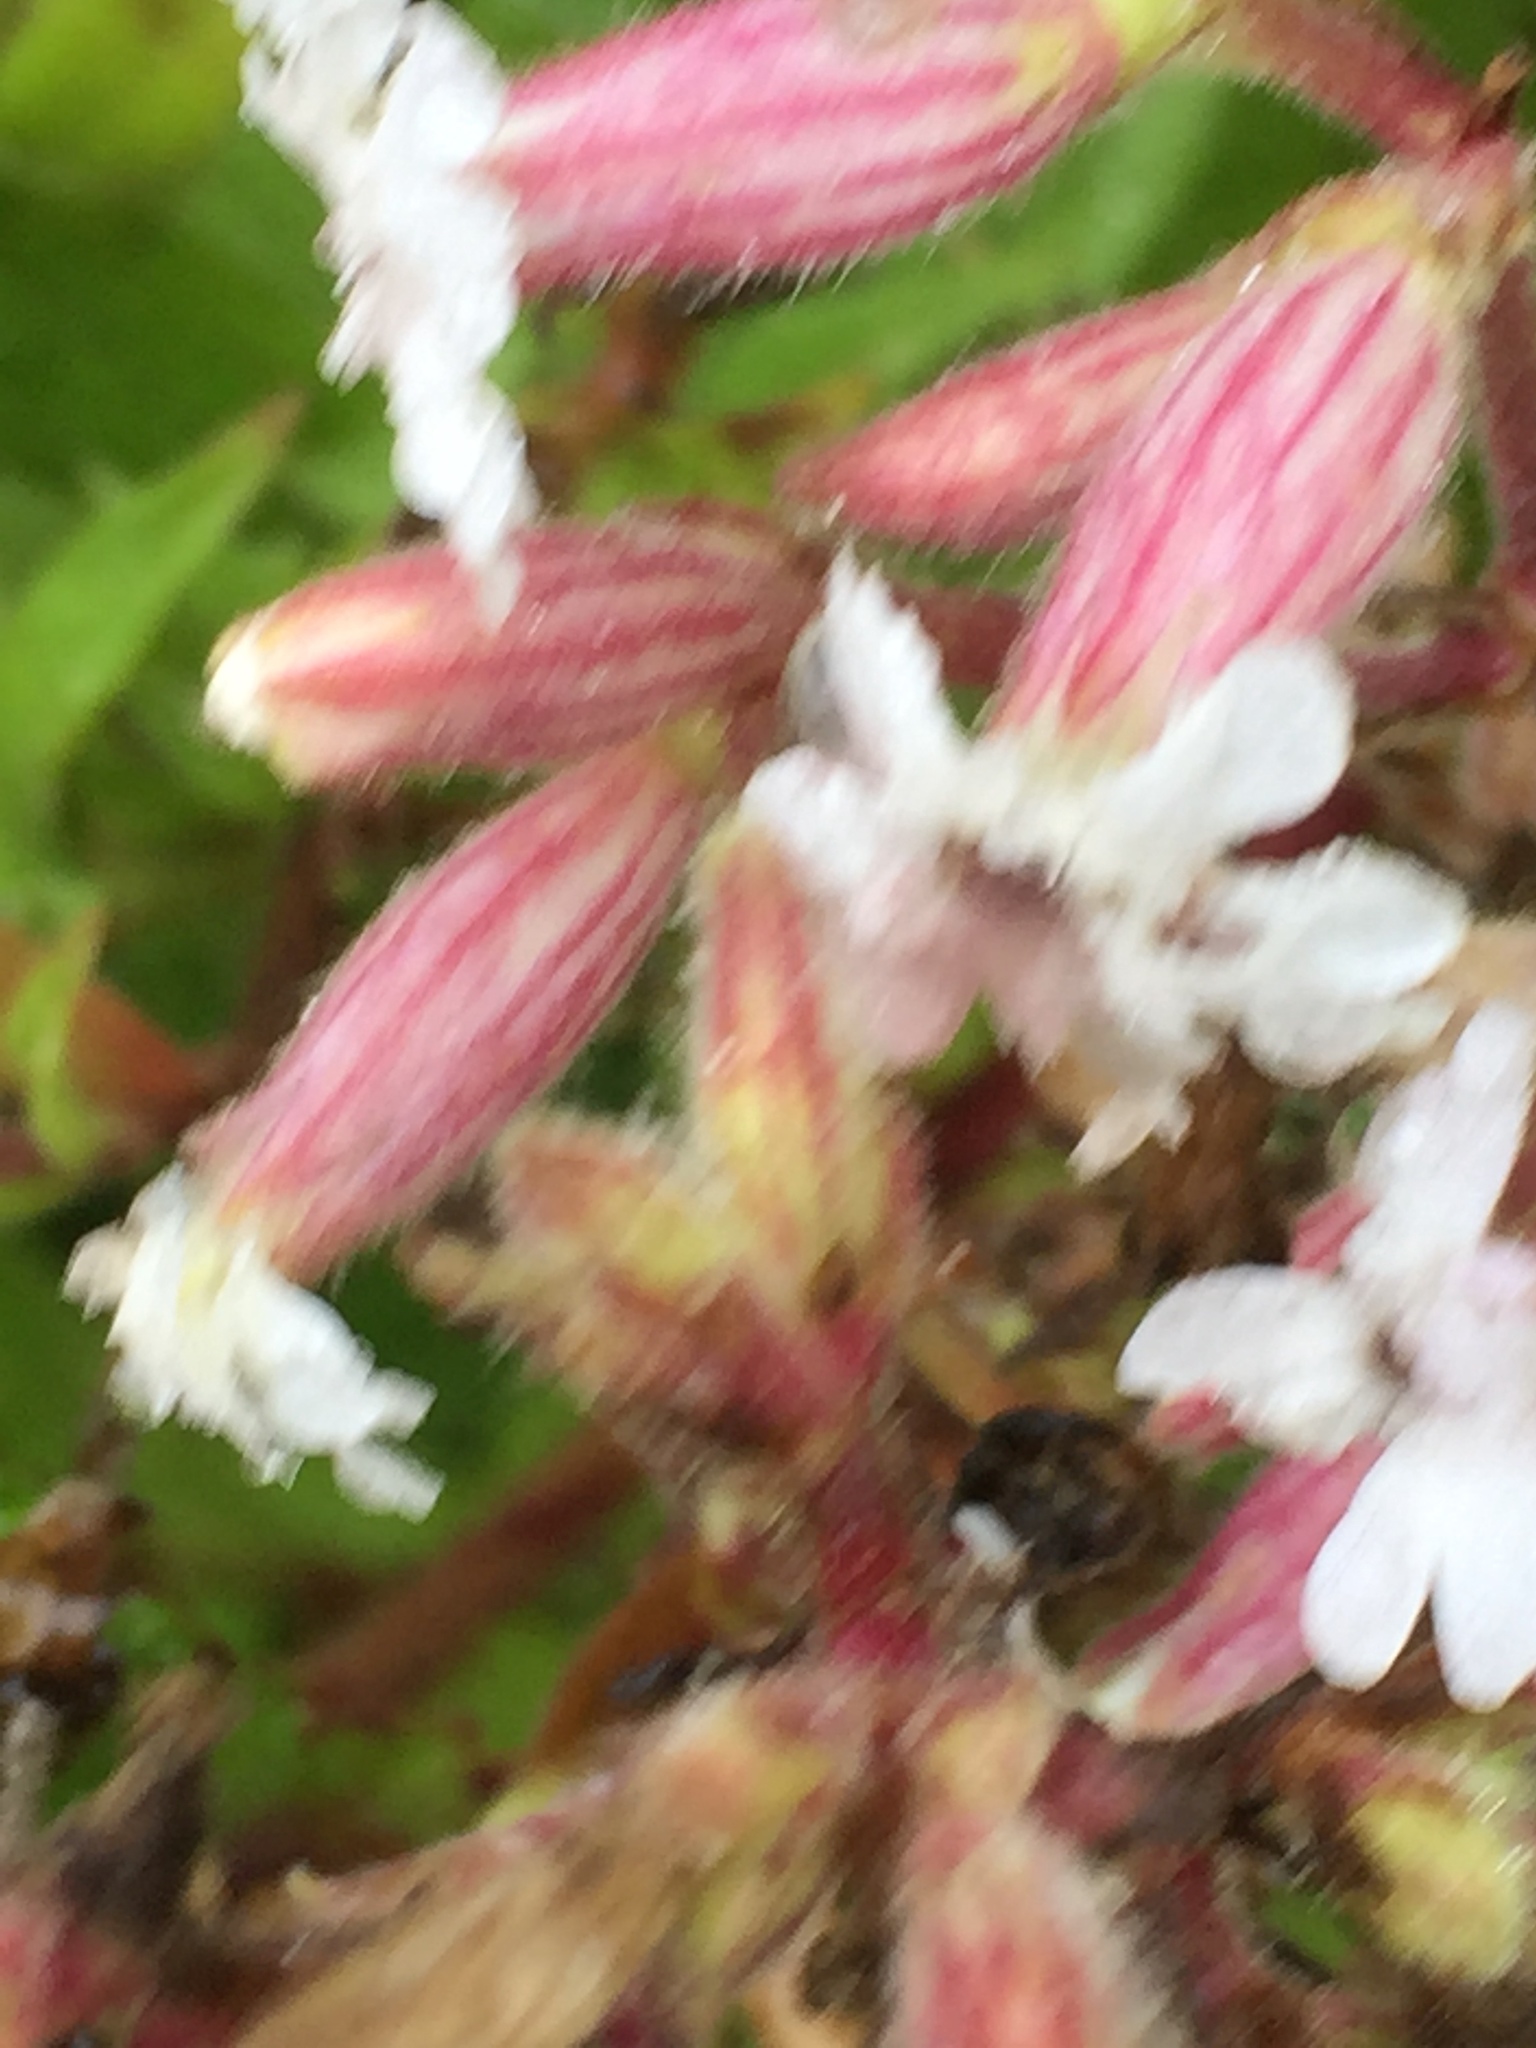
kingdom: Plantae
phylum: Tracheophyta
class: Magnoliopsida
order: Caryophyllales
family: Caryophyllaceae
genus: Silene
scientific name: Silene latifolia
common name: White campion
